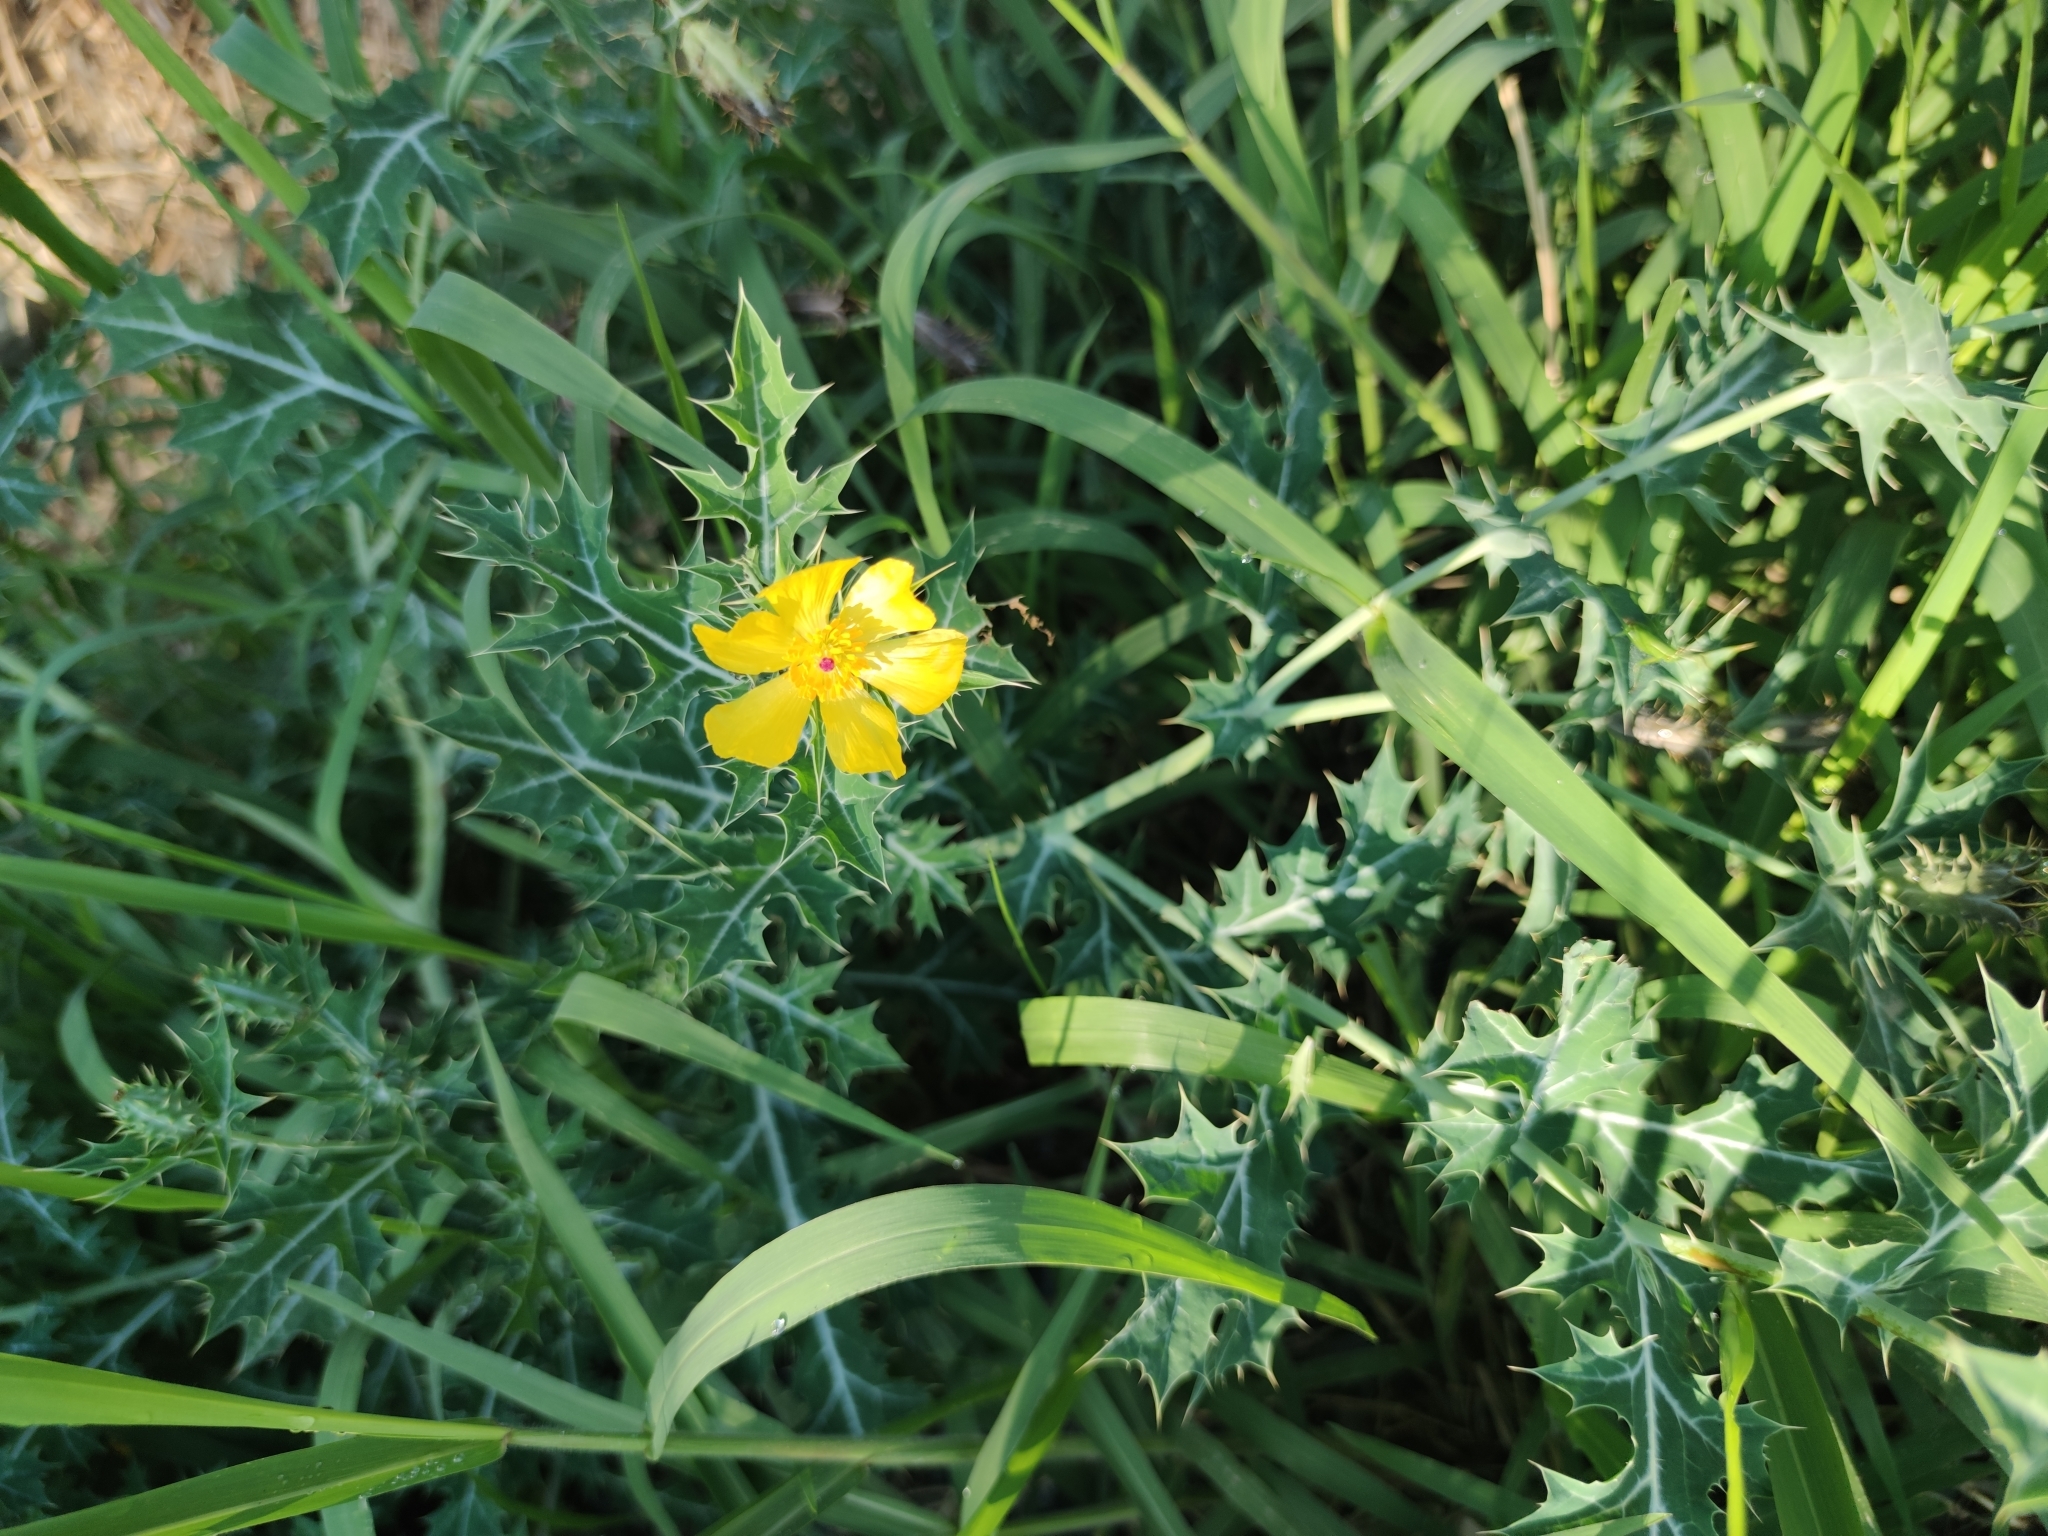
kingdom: Plantae
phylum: Tracheophyta
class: Magnoliopsida
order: Ranunculales
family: Papaveraceae
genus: Argemone
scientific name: Argemone mexicana
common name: Mexican poppy
